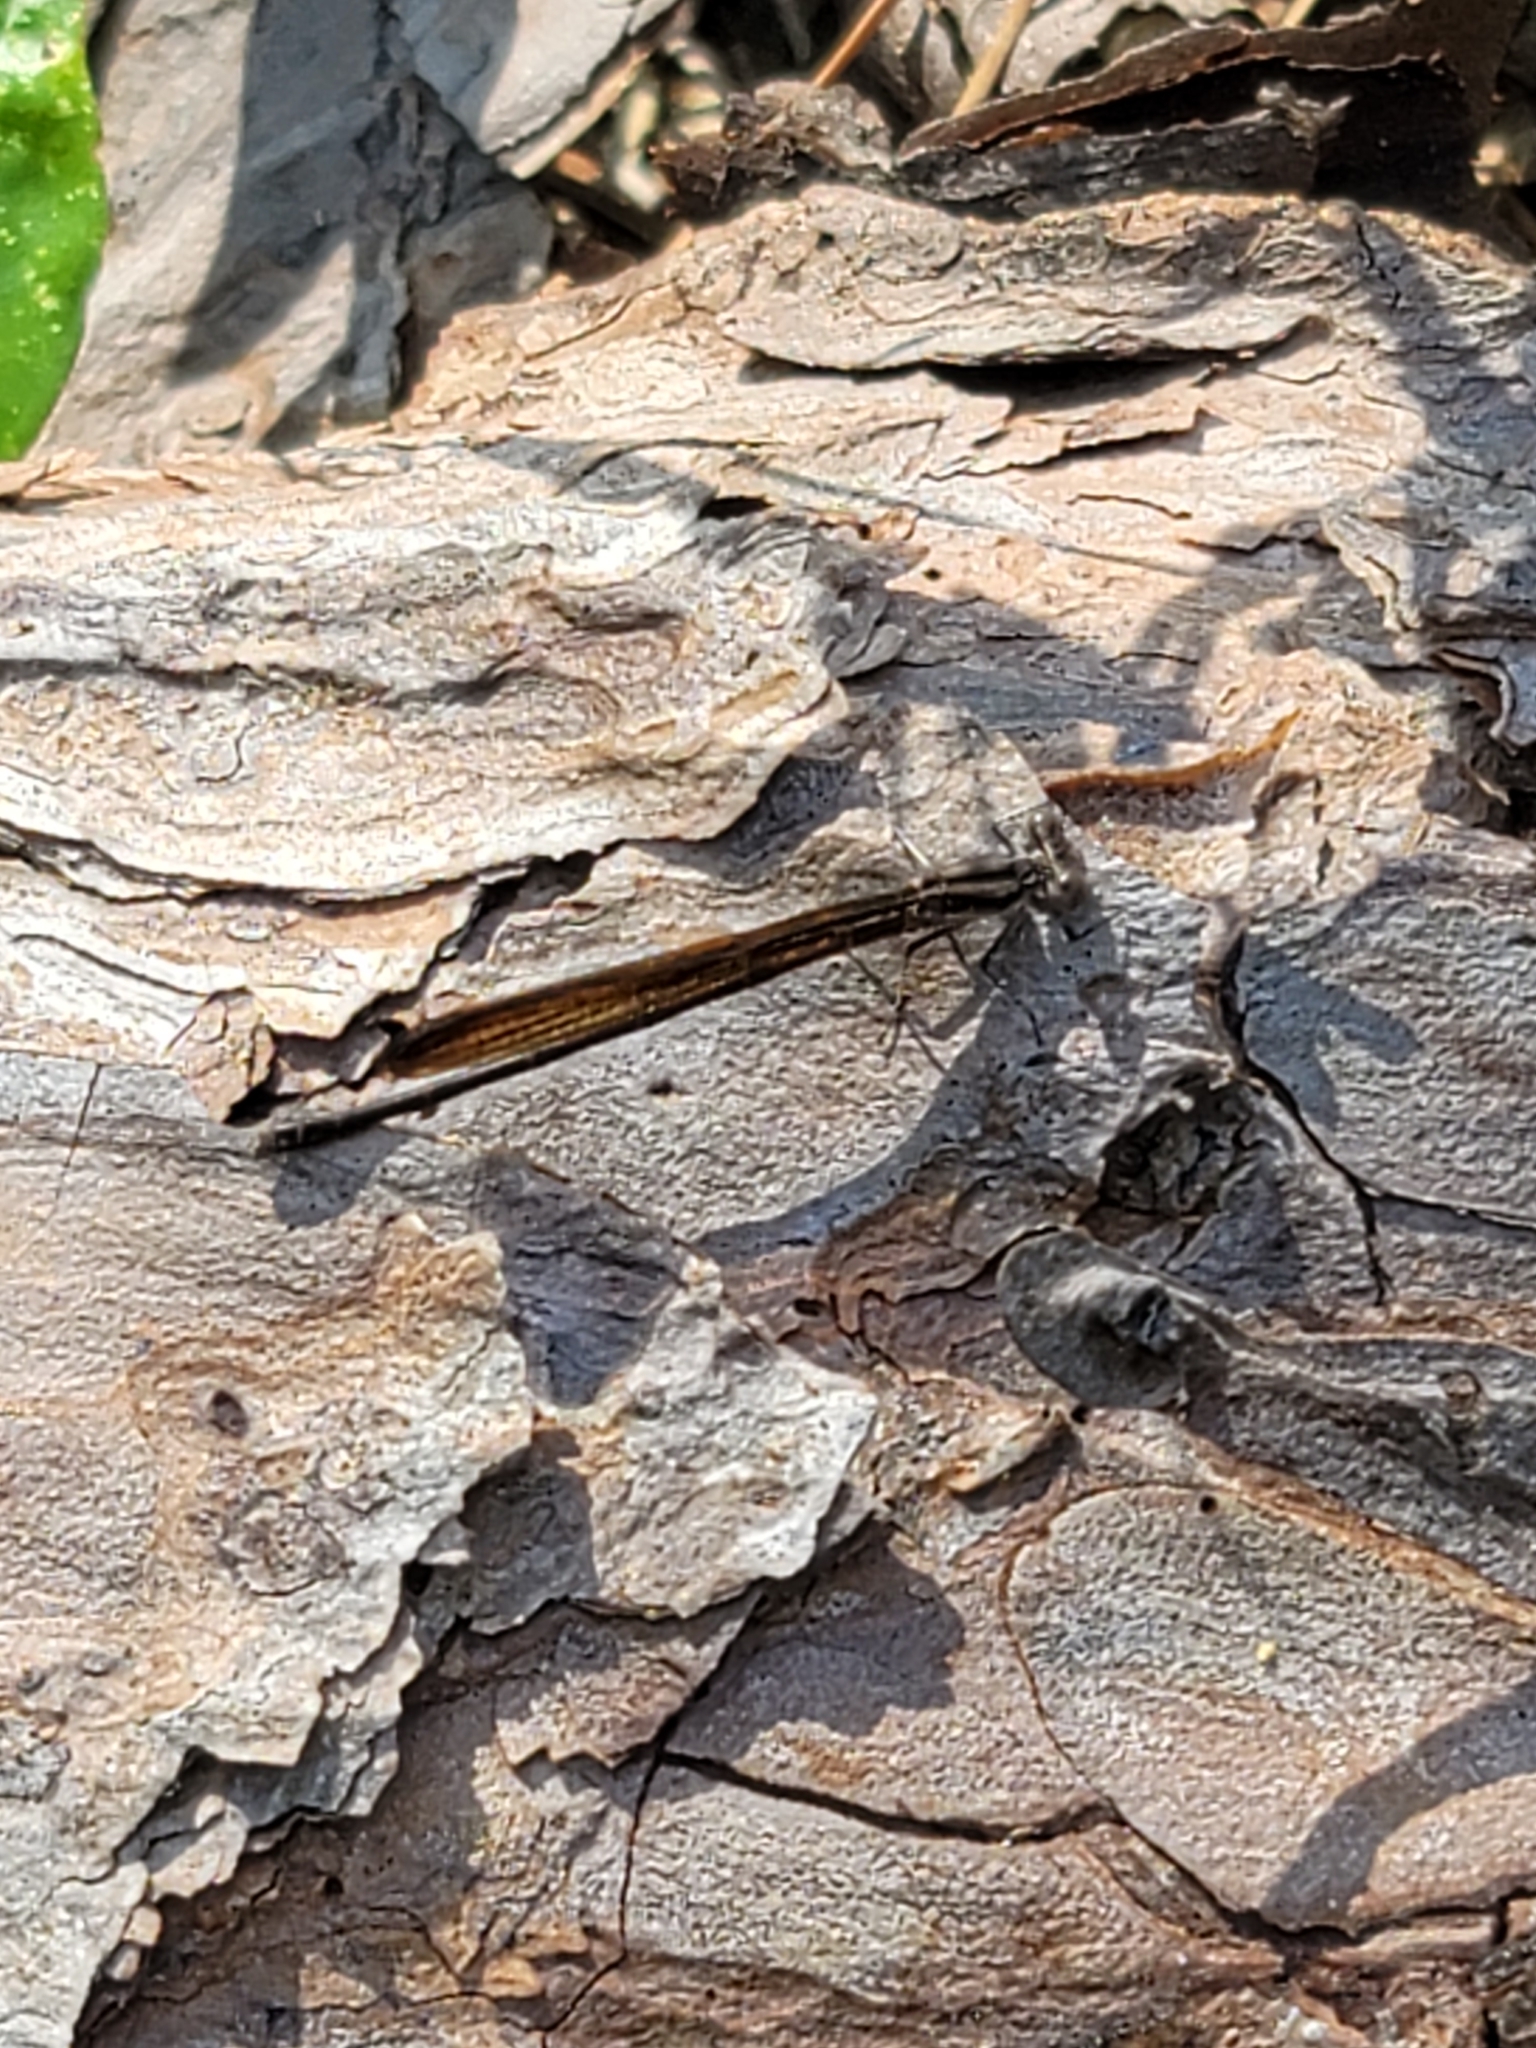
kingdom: Animalia
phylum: Arthropoda
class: Insecta
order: Odonata
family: Coenagrionidae
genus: Argia
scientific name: Argia fumipennis
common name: Variable dancer
